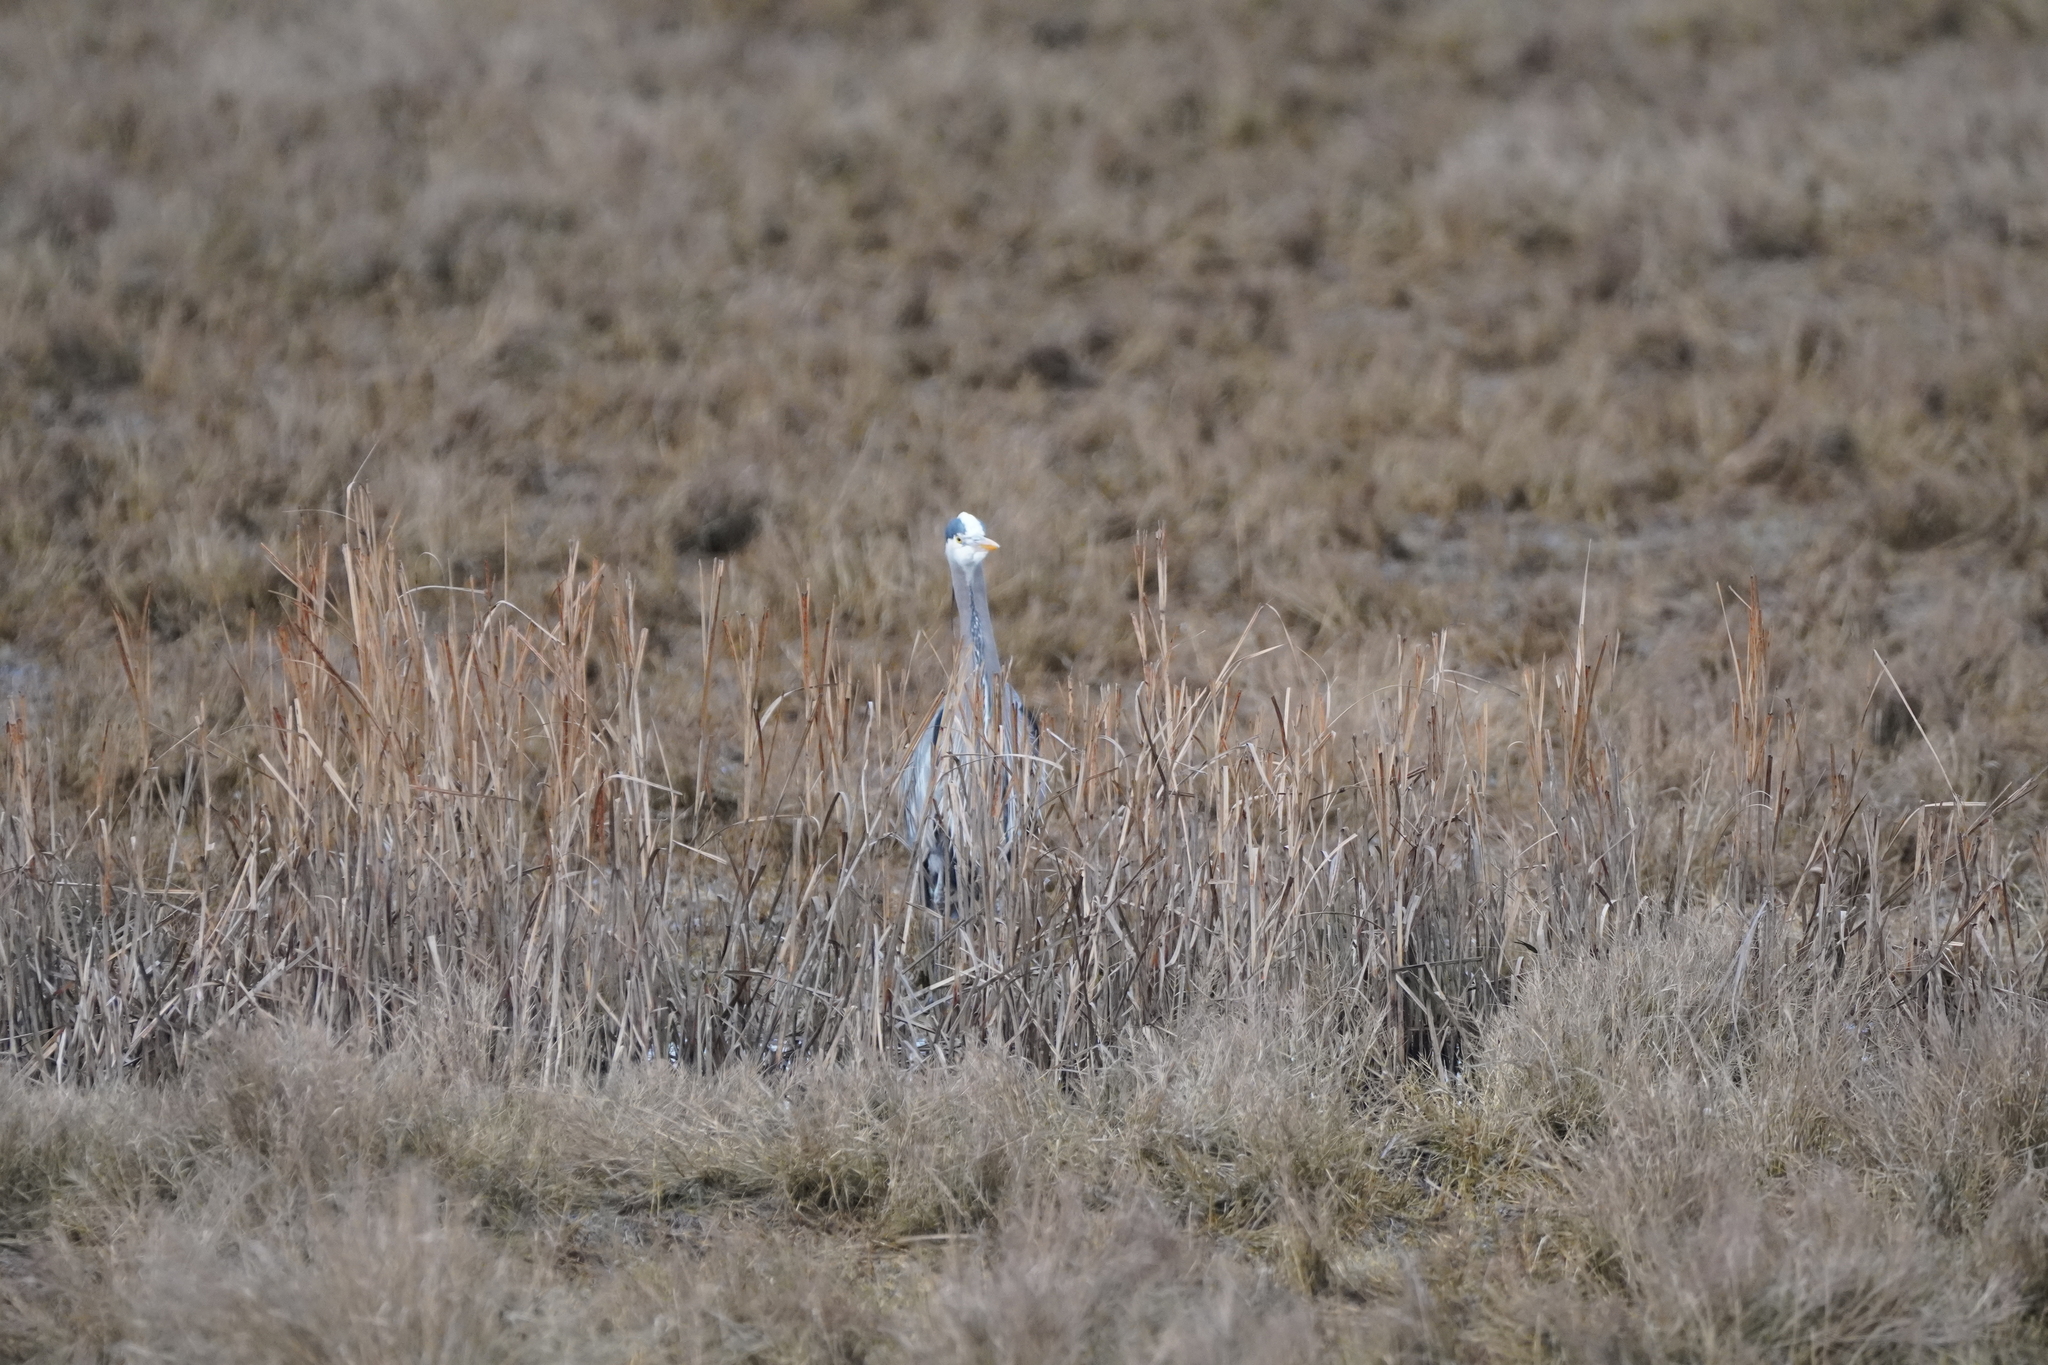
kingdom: Animalia
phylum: Chordata
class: Aves
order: Pelecaniformes
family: Ardeidae
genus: Ardea
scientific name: Ardea herodias
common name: Great blue heron
